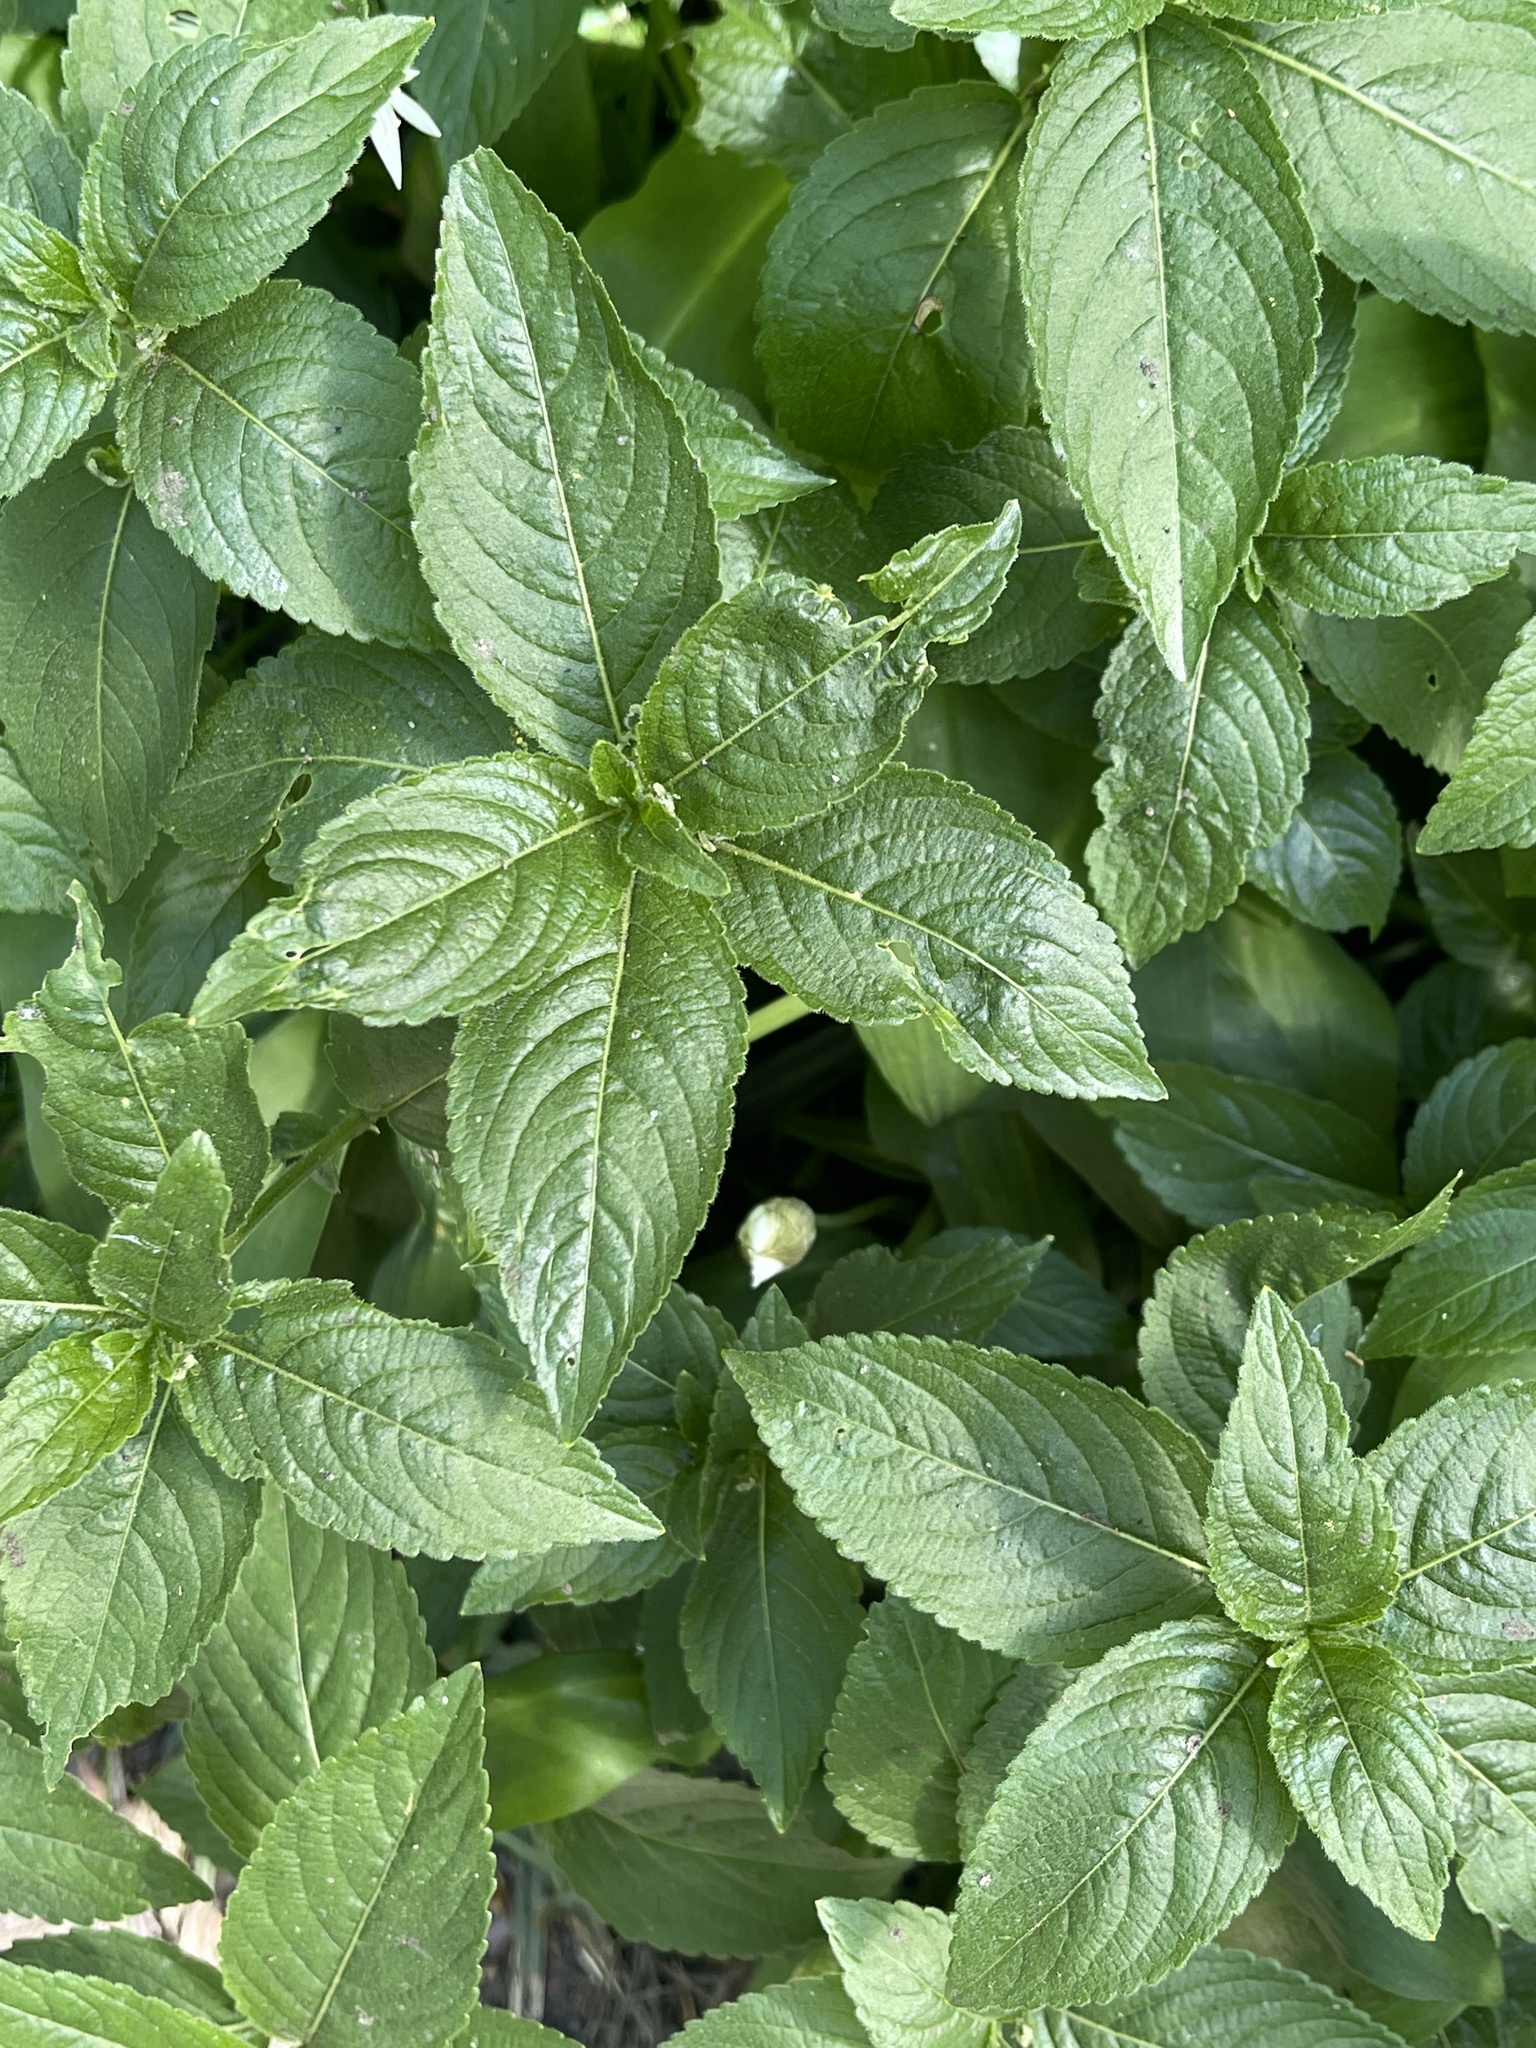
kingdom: Plantae
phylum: Tracheophyta
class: Magnoliopsida
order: Malpighiales
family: Euphorbiaceae
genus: Mercurialis
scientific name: Mercurialis perennis
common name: Dog mercury
